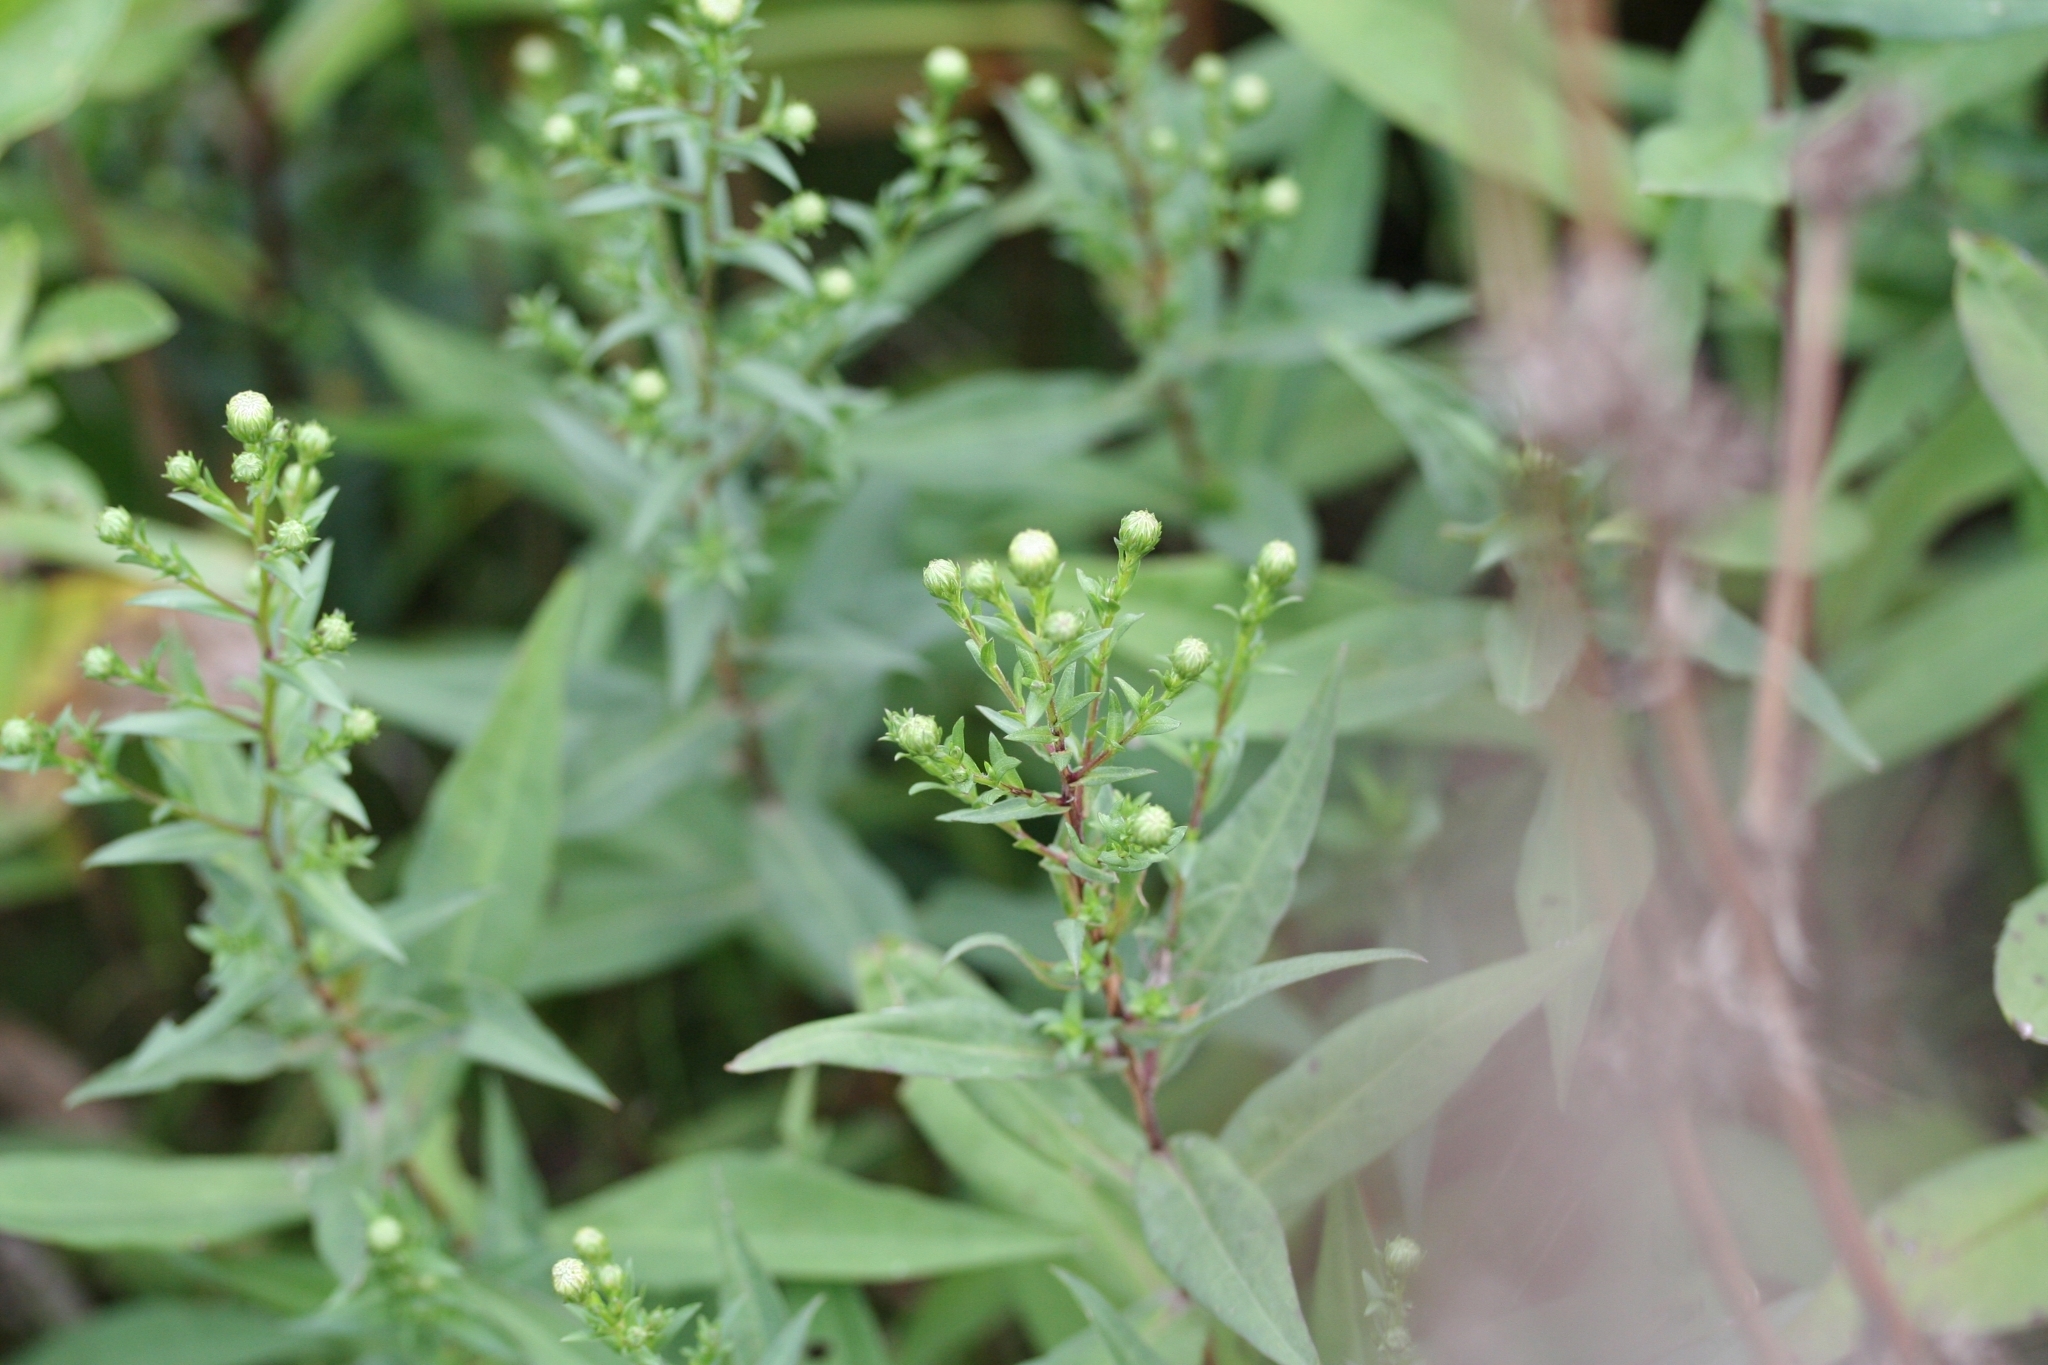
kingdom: Animalia
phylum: Arthropoda
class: Insecta
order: Hymenoptera
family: Ichneumonidae
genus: Pimpla
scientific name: Pimpla
